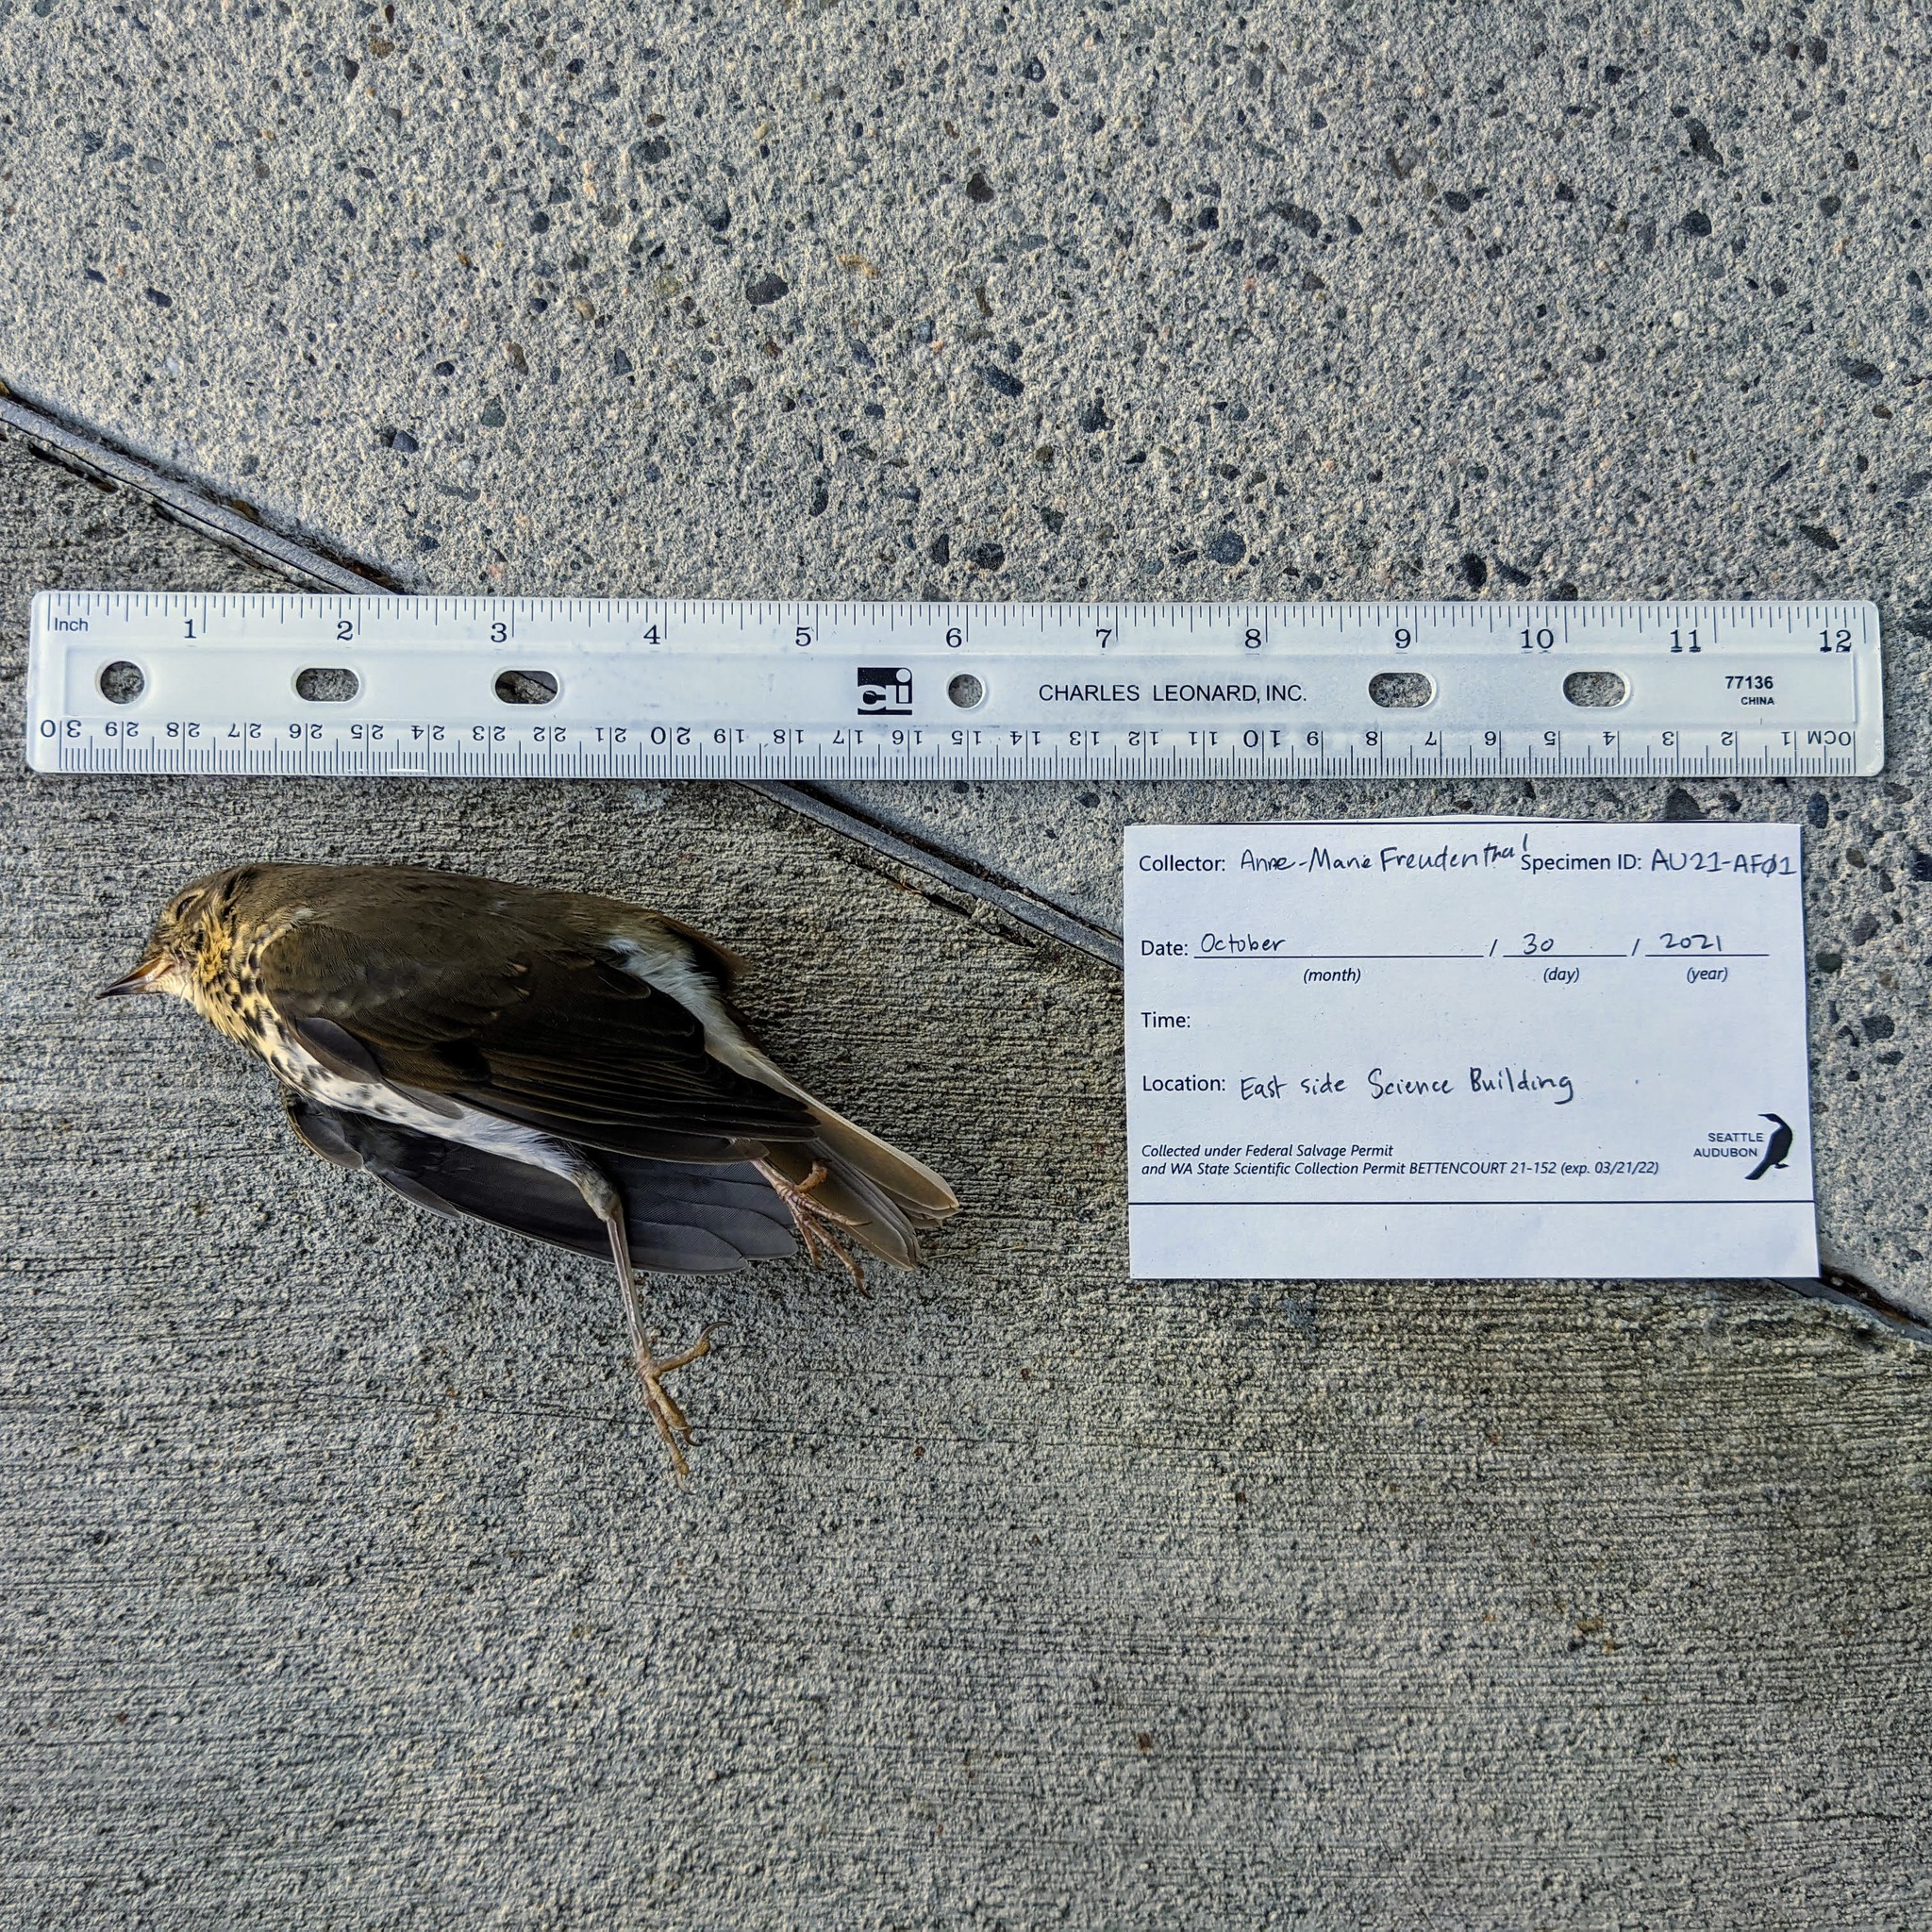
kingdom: Animalia
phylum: Chordata
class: Aves
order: Passeriformes
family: Turdidae
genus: Catharus
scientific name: Catharus ustulatus
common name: Swainson's thrush
